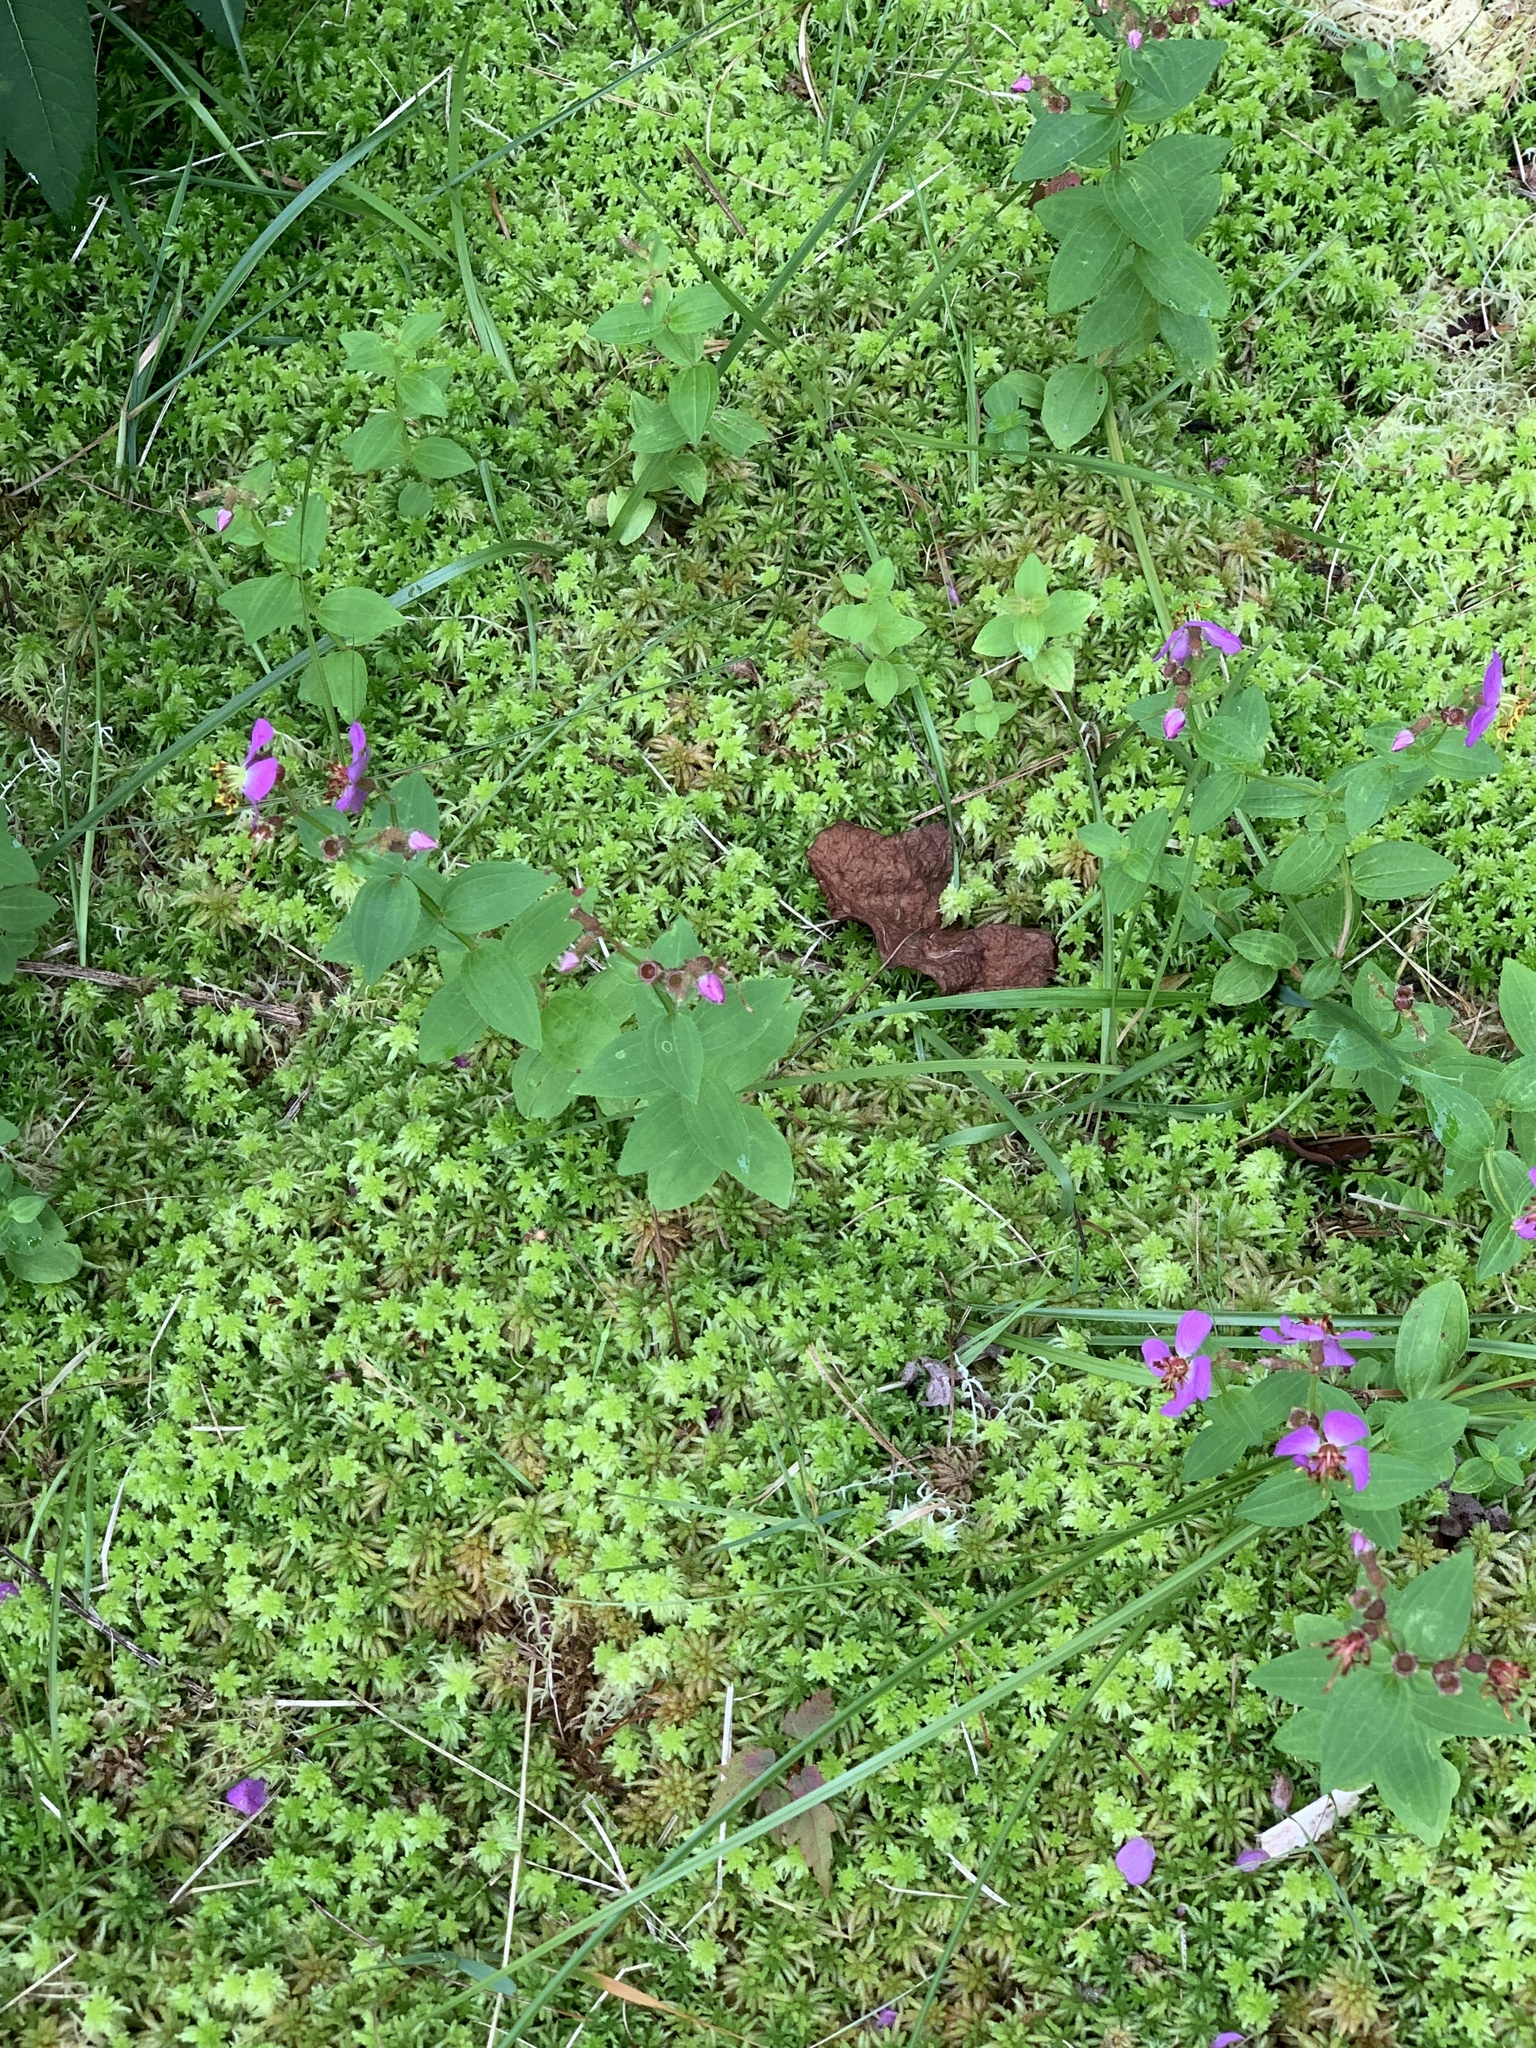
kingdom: Plantae
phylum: Tracheophyta
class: Magnoliopsida
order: Myrtales
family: Melastomataceae
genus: Rhexia
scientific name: Rhexia virginica
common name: Common meadow beauty
